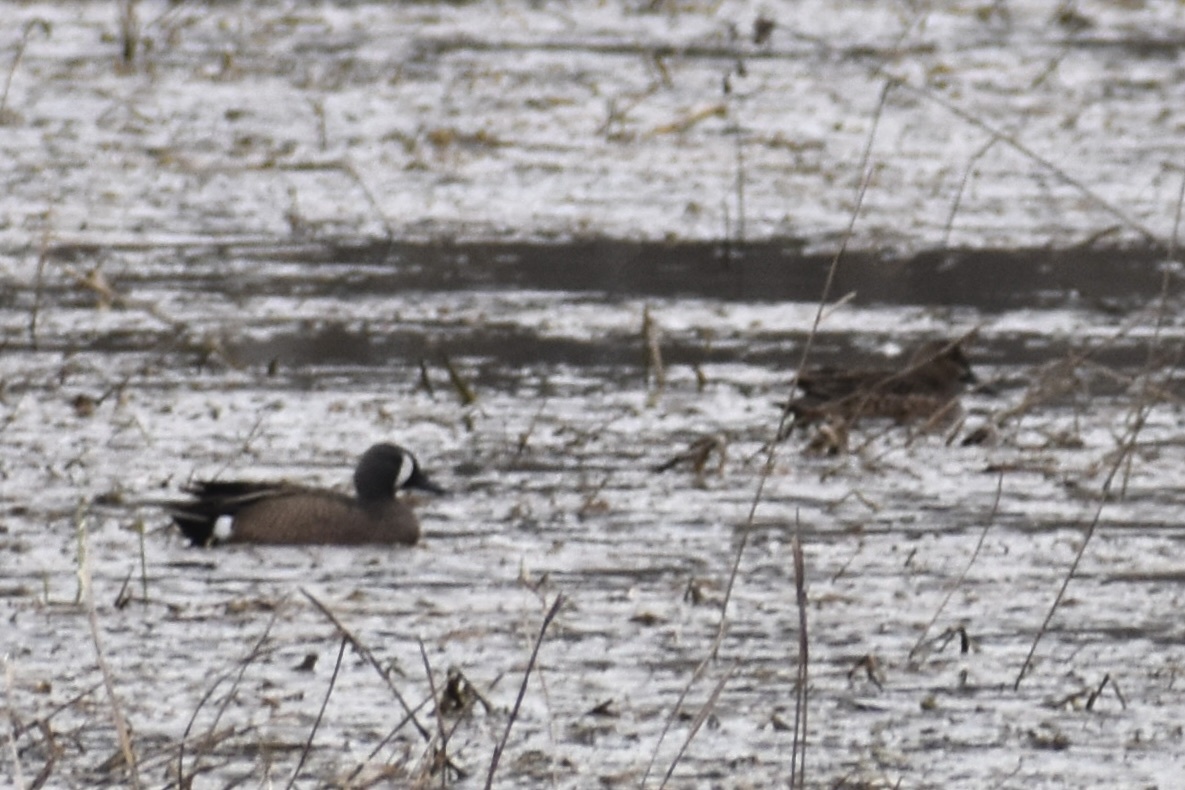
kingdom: Animalia
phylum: Chordata
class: Aves
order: Anseriformes
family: Anatidae
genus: Spatula
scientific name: Spatula discors
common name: Blue-winged teal
